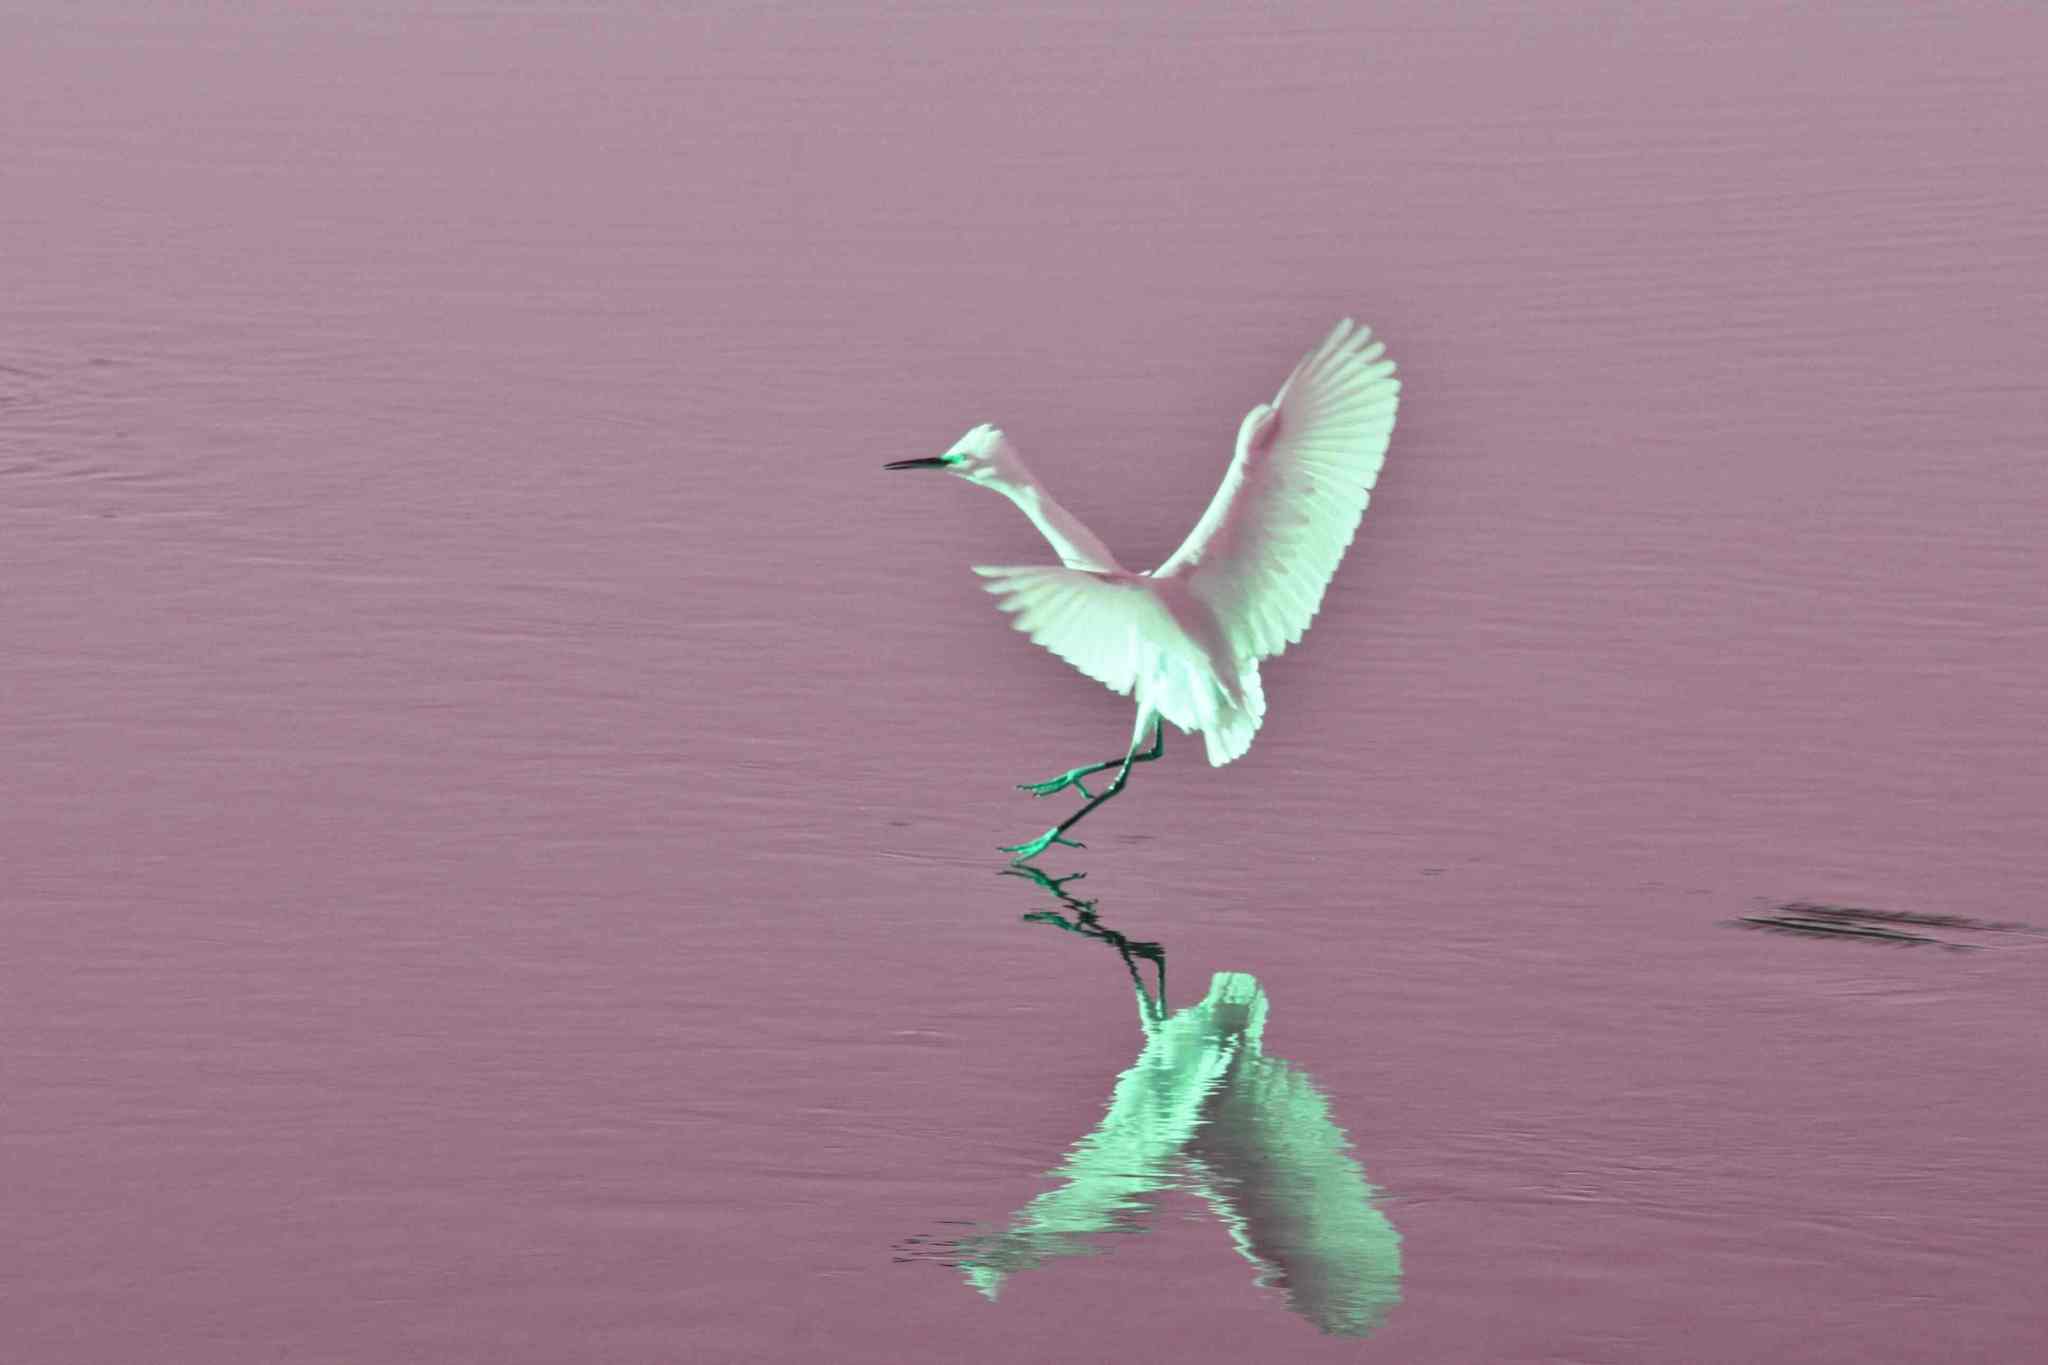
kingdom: Animalia
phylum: Chordata
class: Aves
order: Pelecaniformes
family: Ardeidae
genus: Egretta
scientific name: Egretta thula
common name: Snowy egret
